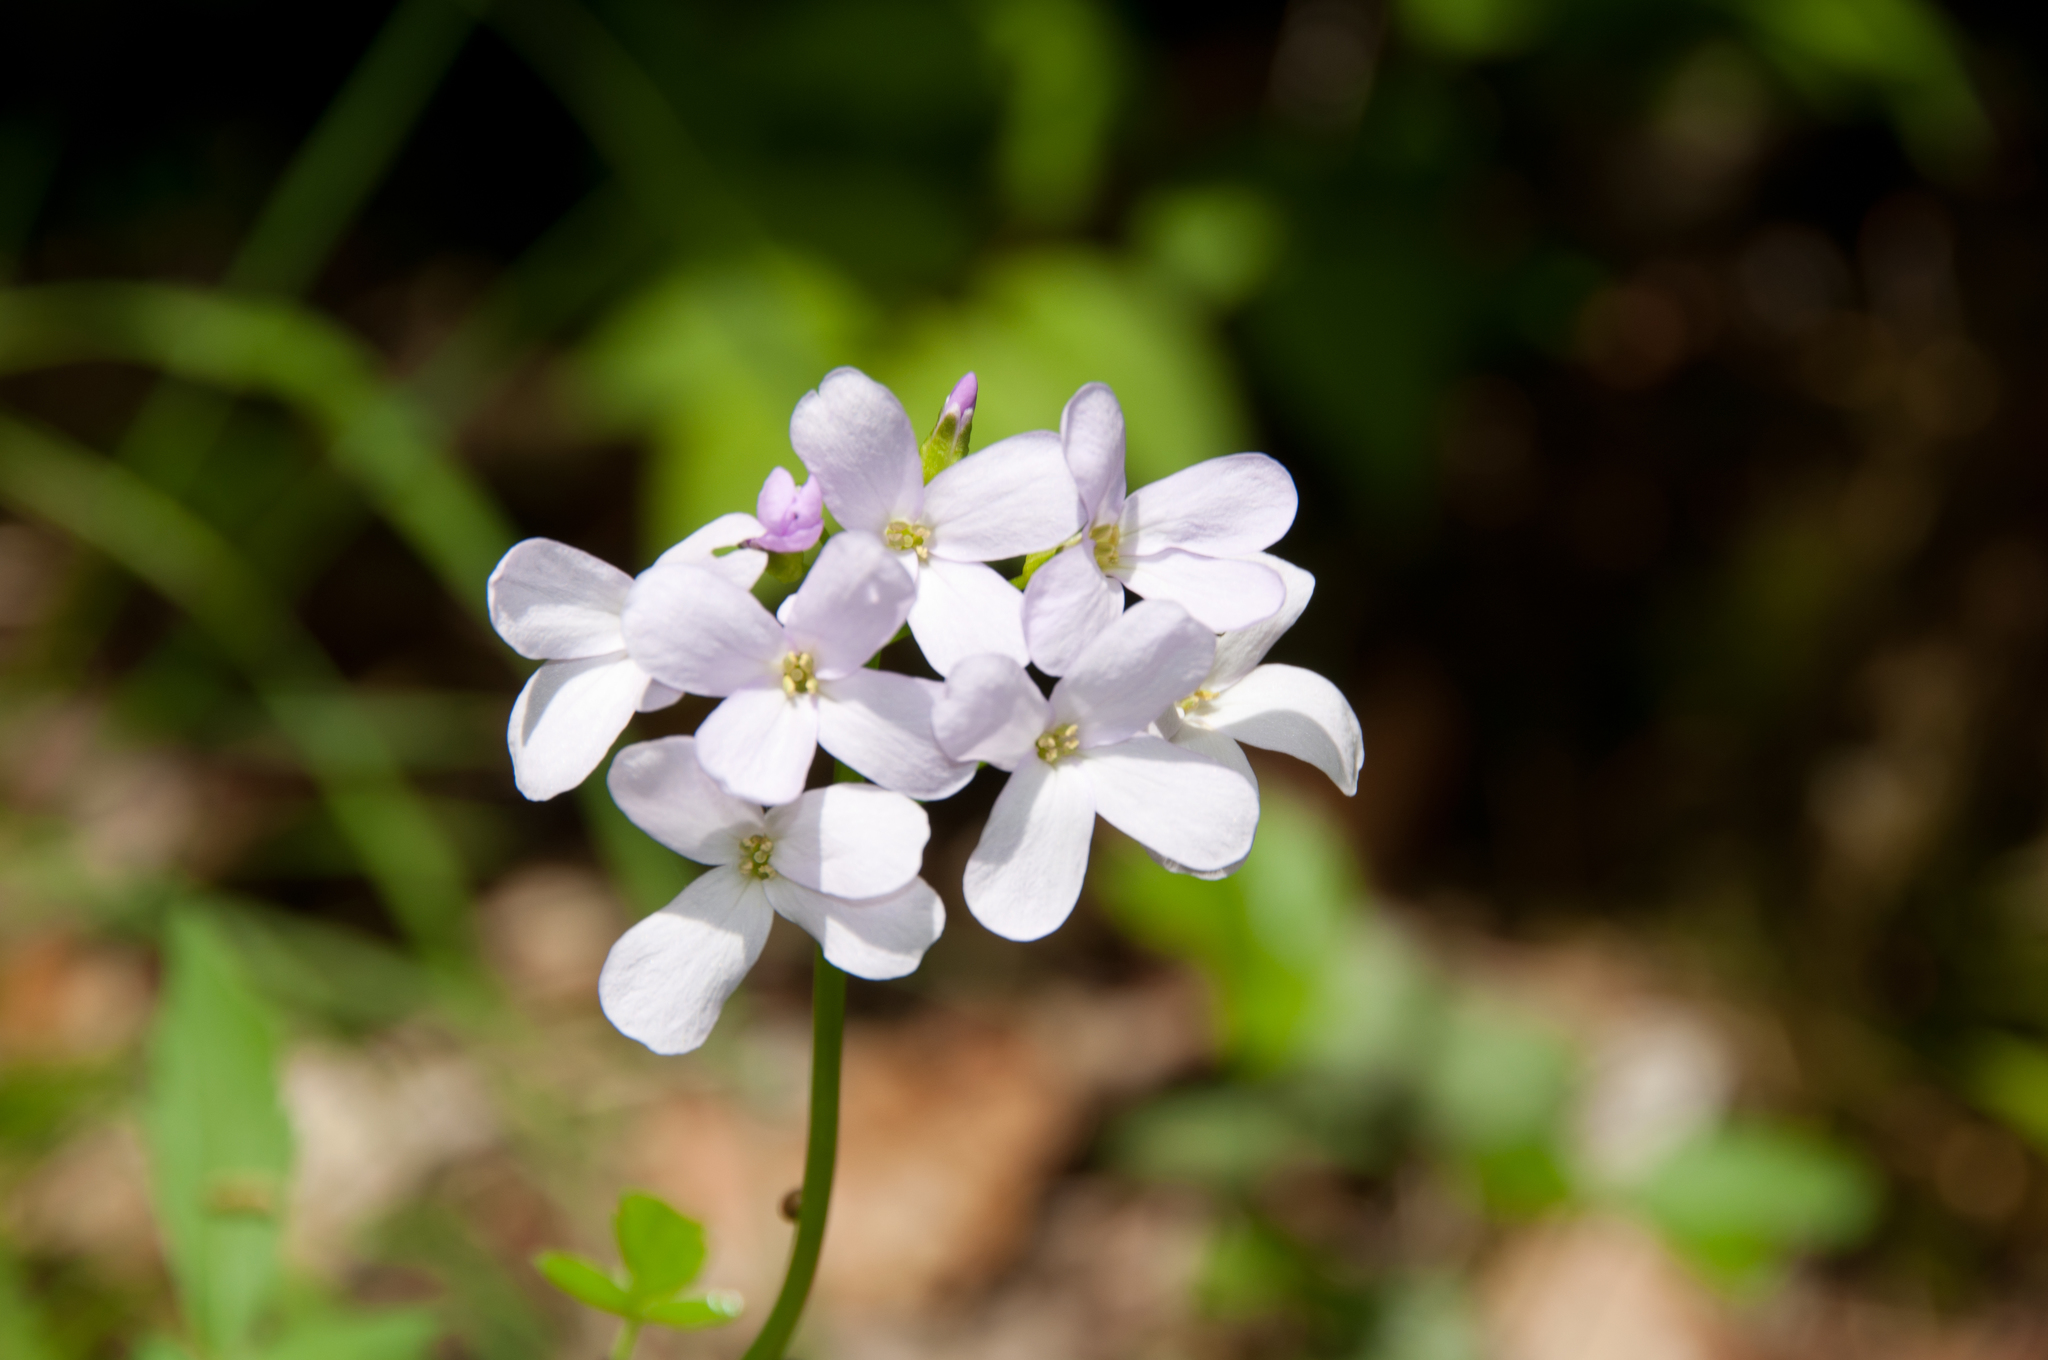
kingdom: Plantae
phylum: Tracheophyta
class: Magnoliopsida
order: Brassicales
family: Brassicaceae
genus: Cardamine
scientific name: Cardamine bulbifera
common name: Coralroot bittercress
